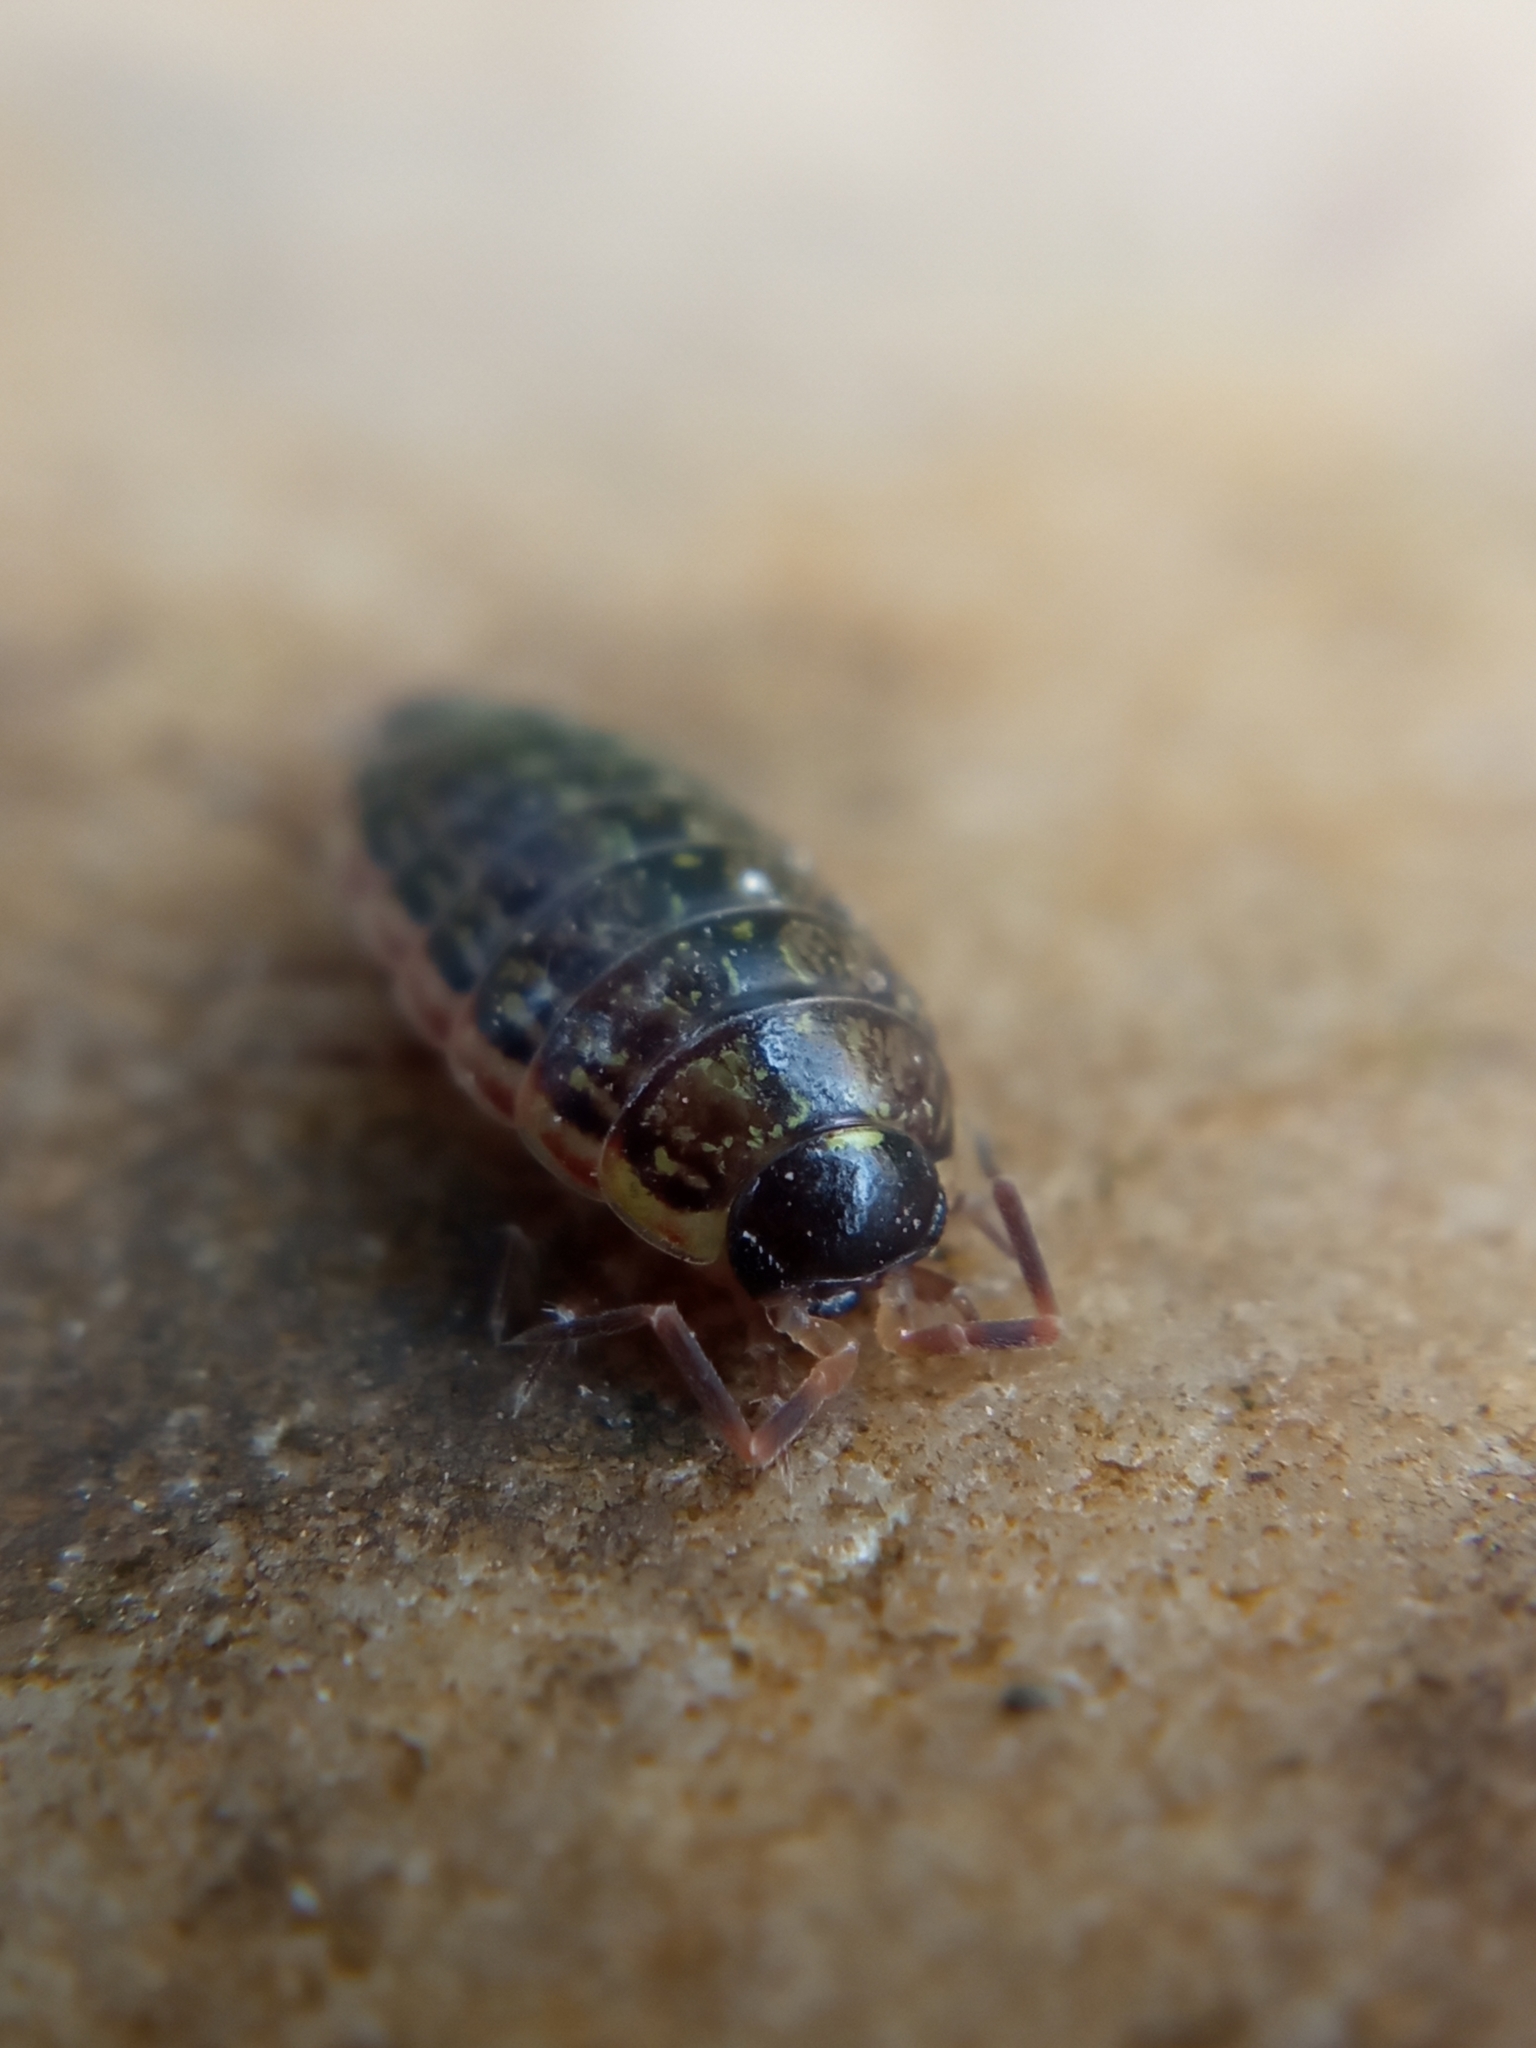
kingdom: Animalia
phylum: Arthropoda
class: Malacostraca
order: Isopoda
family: Philosciidae
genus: Philoscia
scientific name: Philoscia muscorum
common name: Common striped woodlouse
